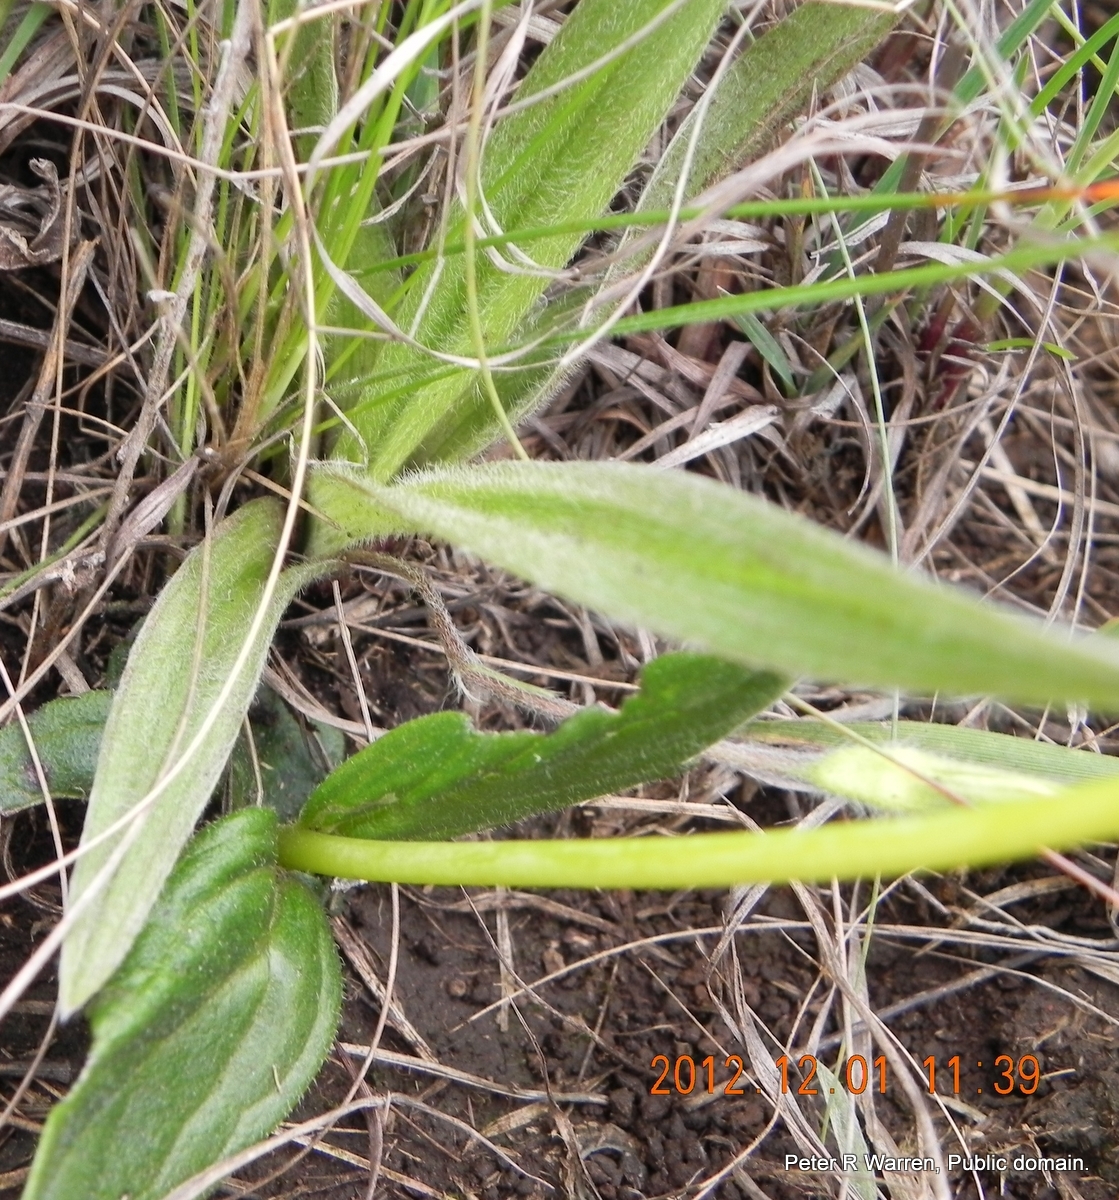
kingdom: Plantae
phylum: Tracheophyta
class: Magnoliopsida
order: Lamiales
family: Orobanchaceae
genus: Buchnera
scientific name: Buchnera simplex
